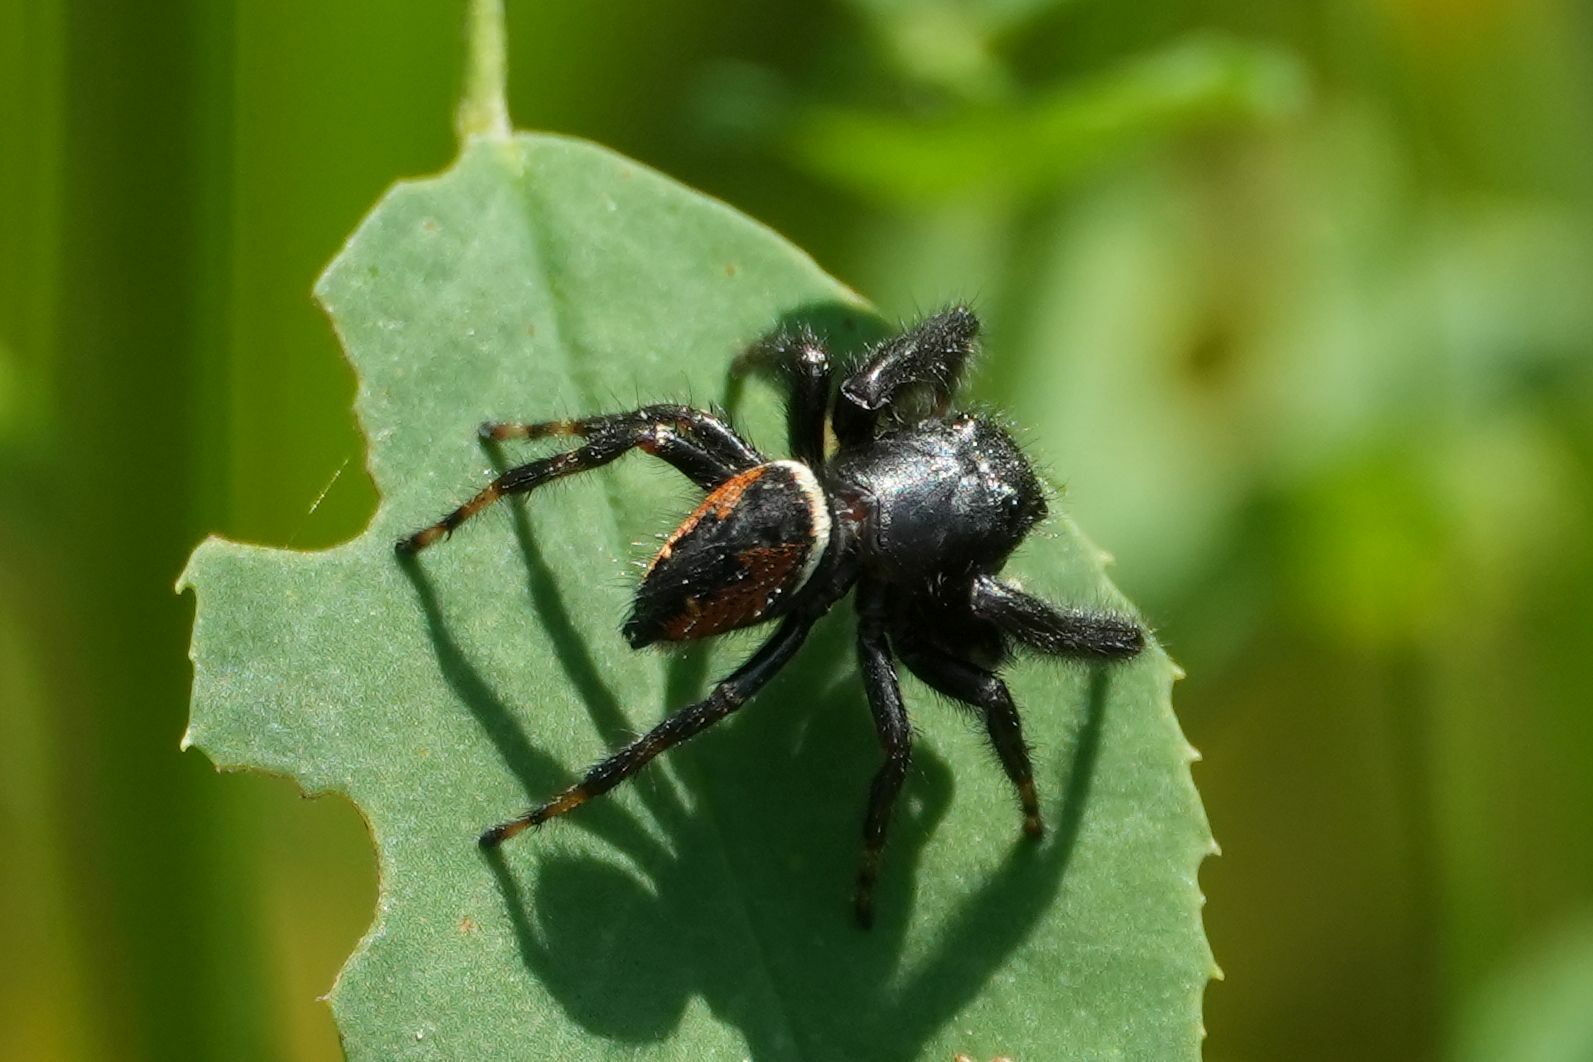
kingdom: Animalia
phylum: Arthropoda
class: Arachnida
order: Araneae
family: Salticidae
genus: Phidippus
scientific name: Phidippus clarus
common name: Brilliant jumping spider
